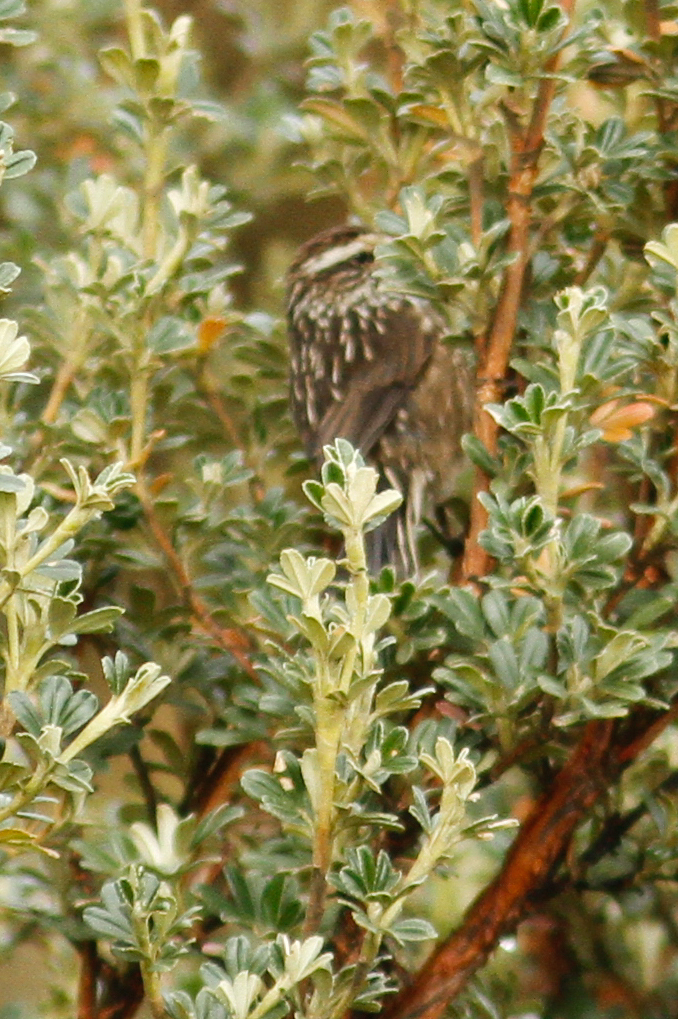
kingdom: Animalia
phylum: Chordata
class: Aves
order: Passeriformes
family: Furnariidae
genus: Leptasthenura
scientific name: Leptasthenura andicola
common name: Andean tit-spinetail
